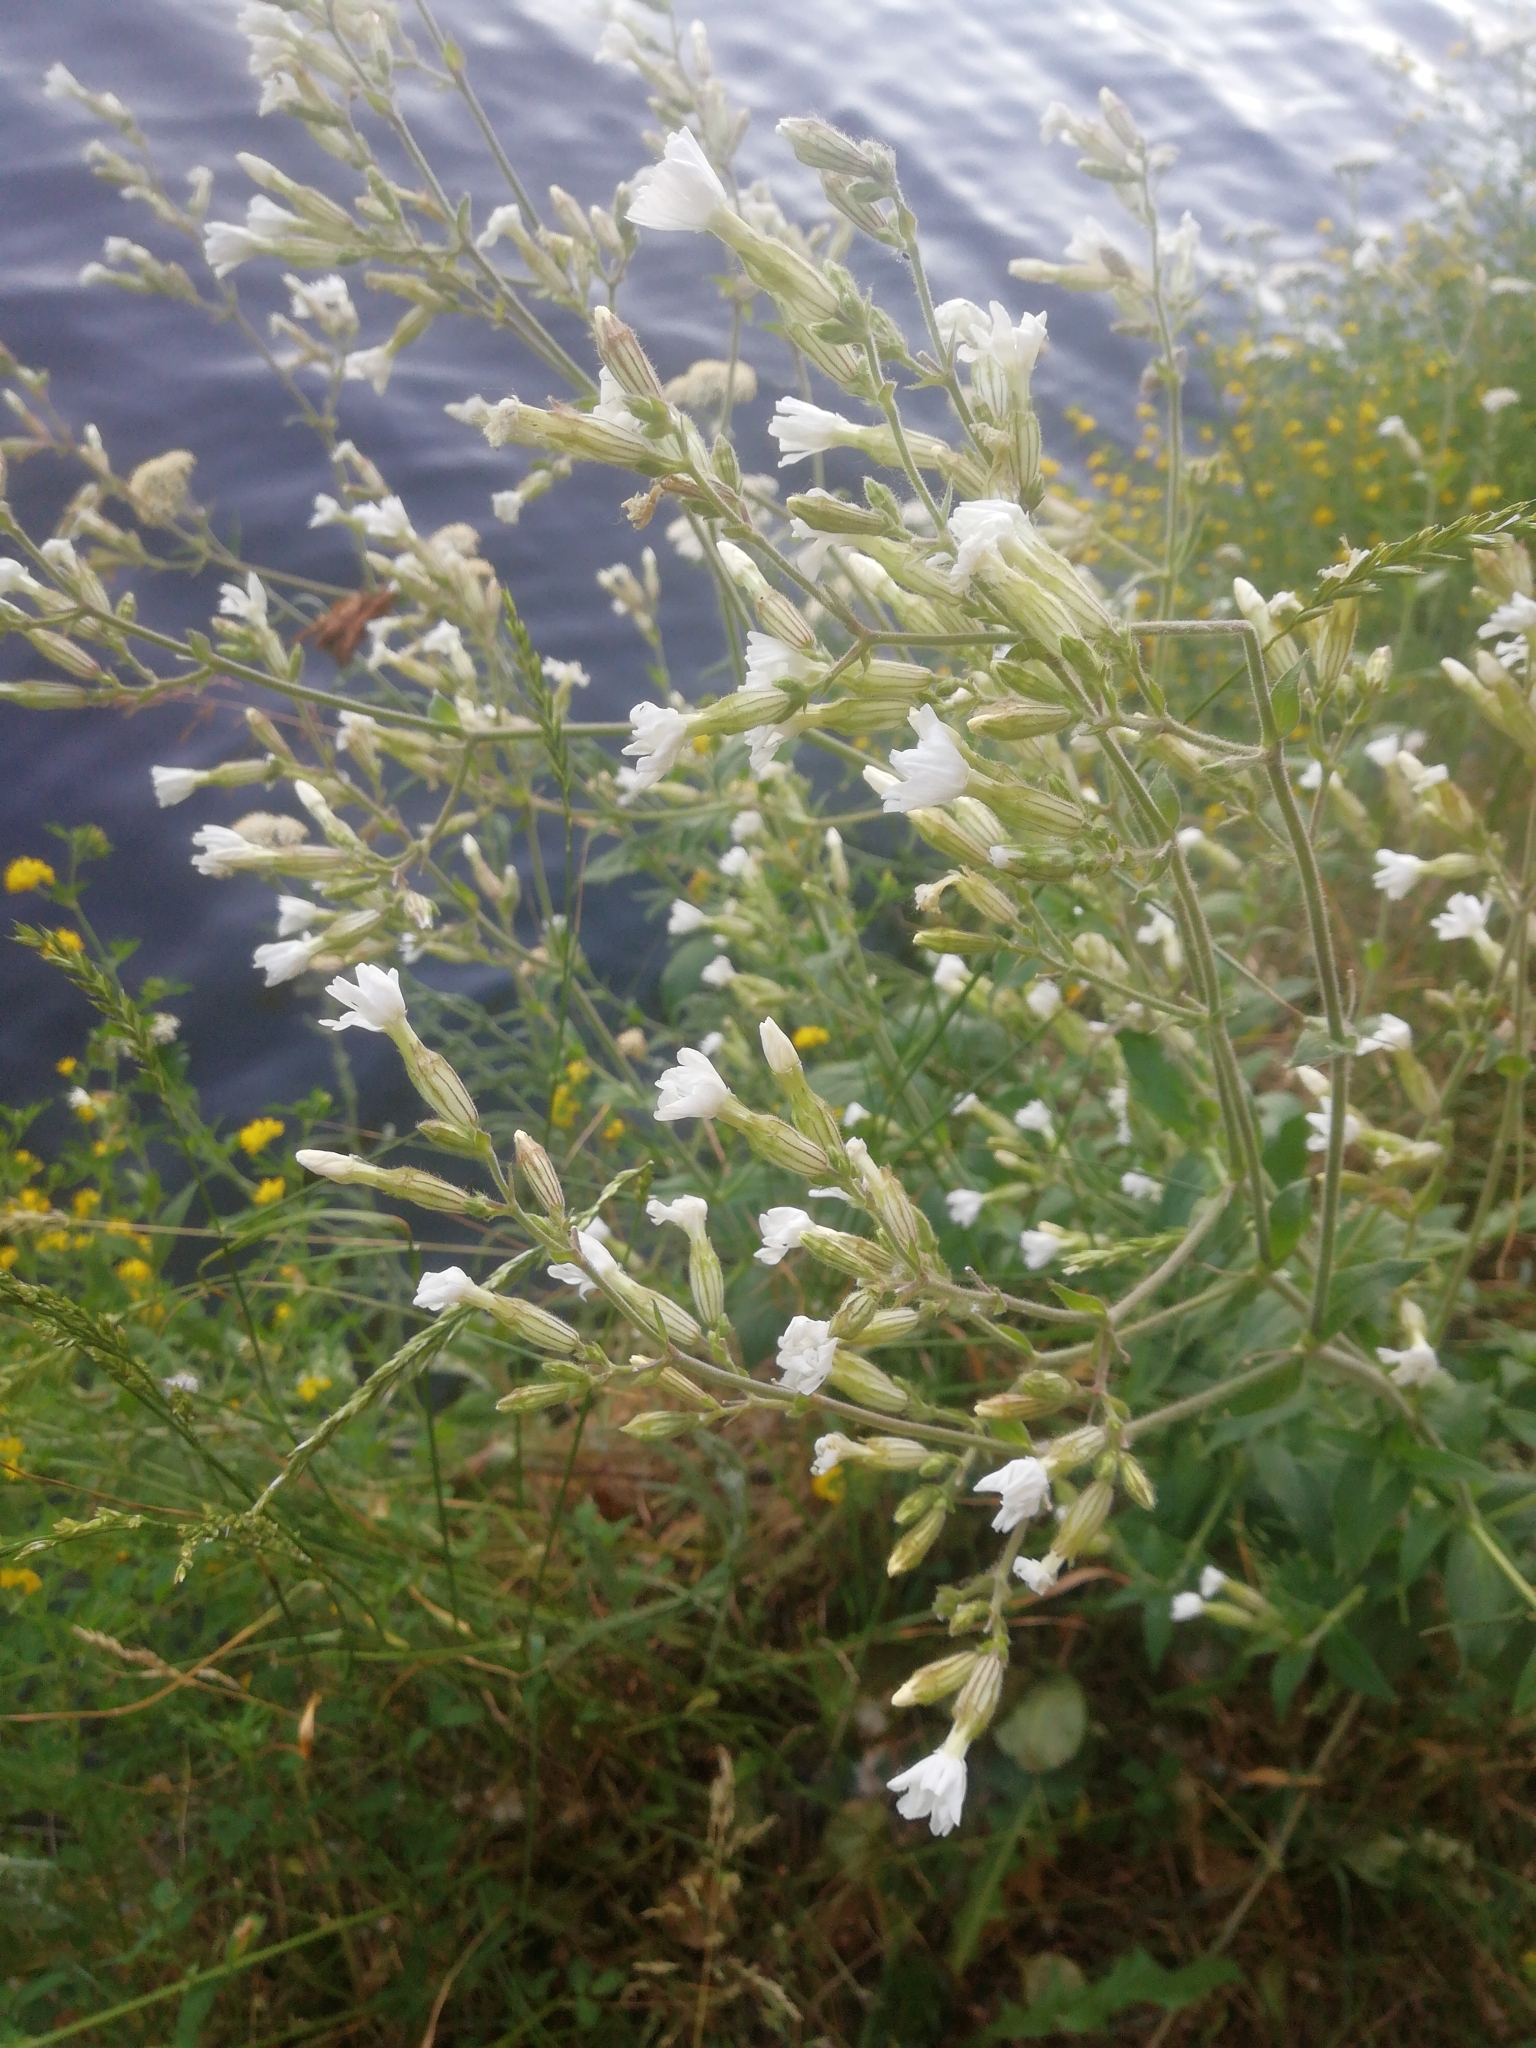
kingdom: Plantae
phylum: Tracheophyta
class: Magnoliopsida
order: Caryophyllales
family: Caryophyllaceae
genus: Silene
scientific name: Silene latifolia
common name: White campion
